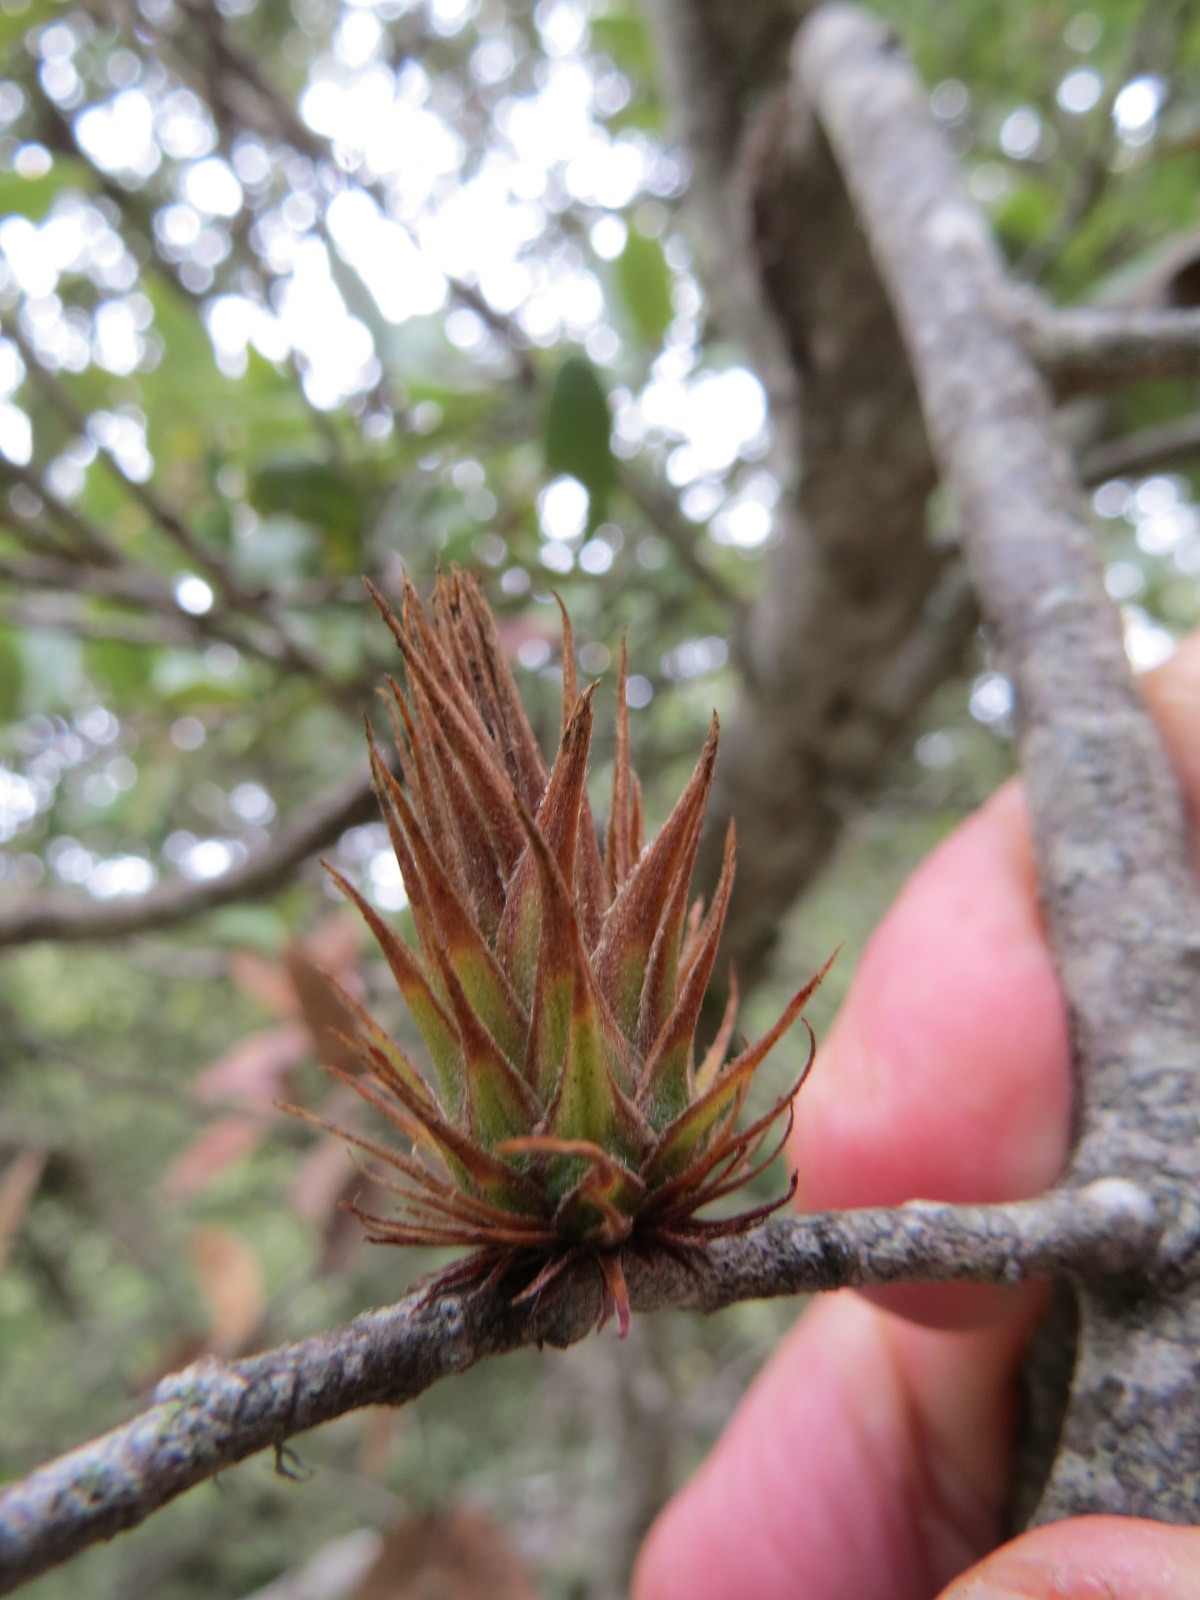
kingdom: Animalia
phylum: Arthropoda
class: Insecta
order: Hymenoptera
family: Cynipidae
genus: Andricus
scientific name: Andricus
